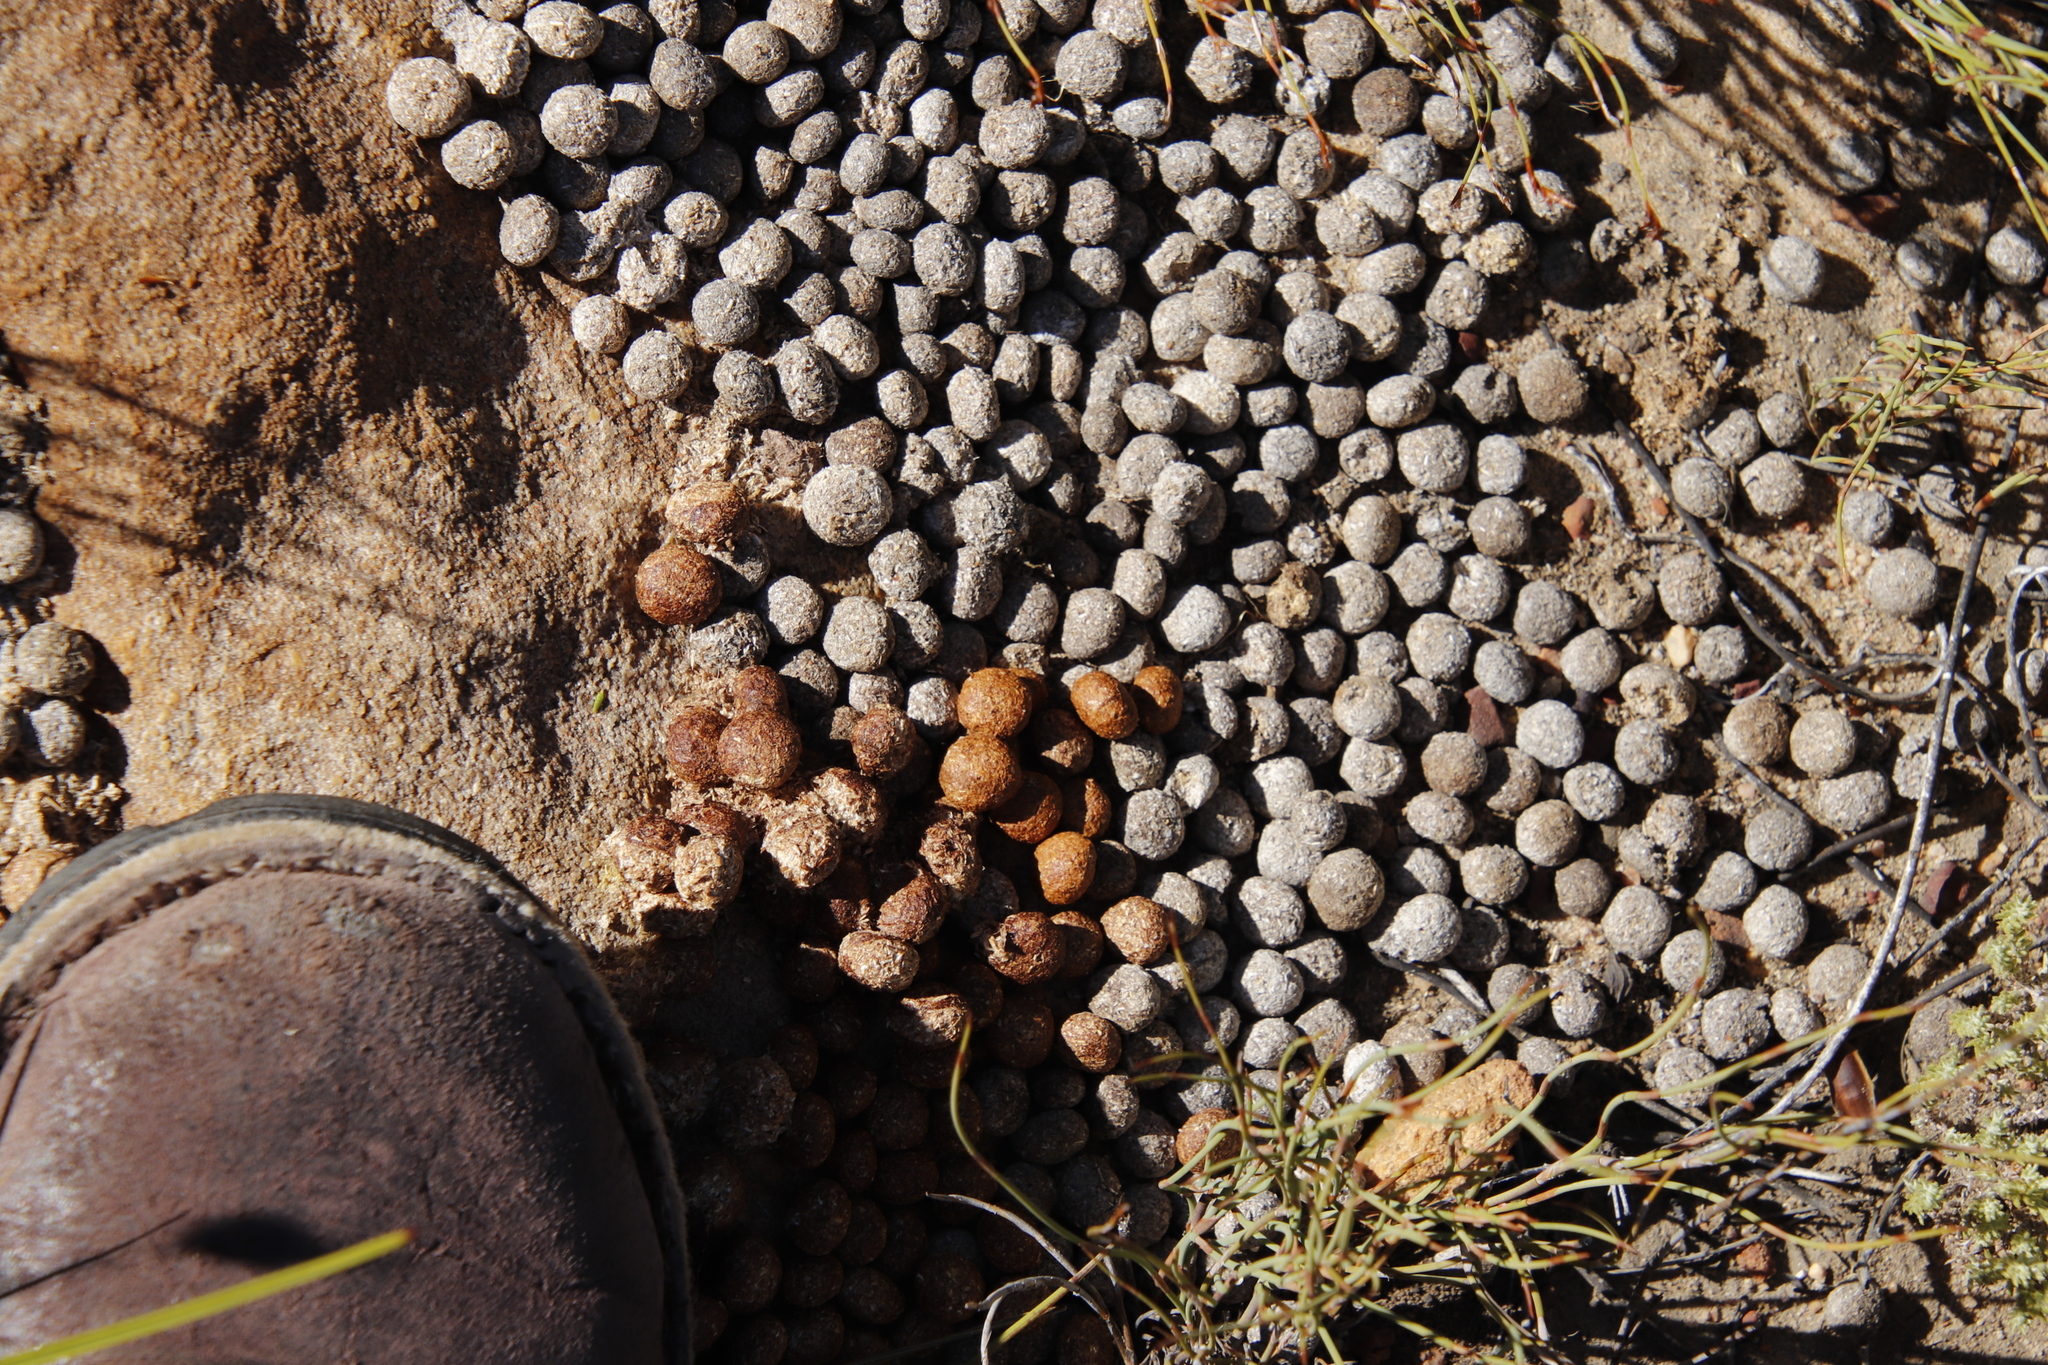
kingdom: Animalia
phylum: Chordata
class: Mammalia
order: Lagomorpha
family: Leporidae
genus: Pronolagus
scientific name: Pronolagus saundersiae
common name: Hewitt's red rock hare
